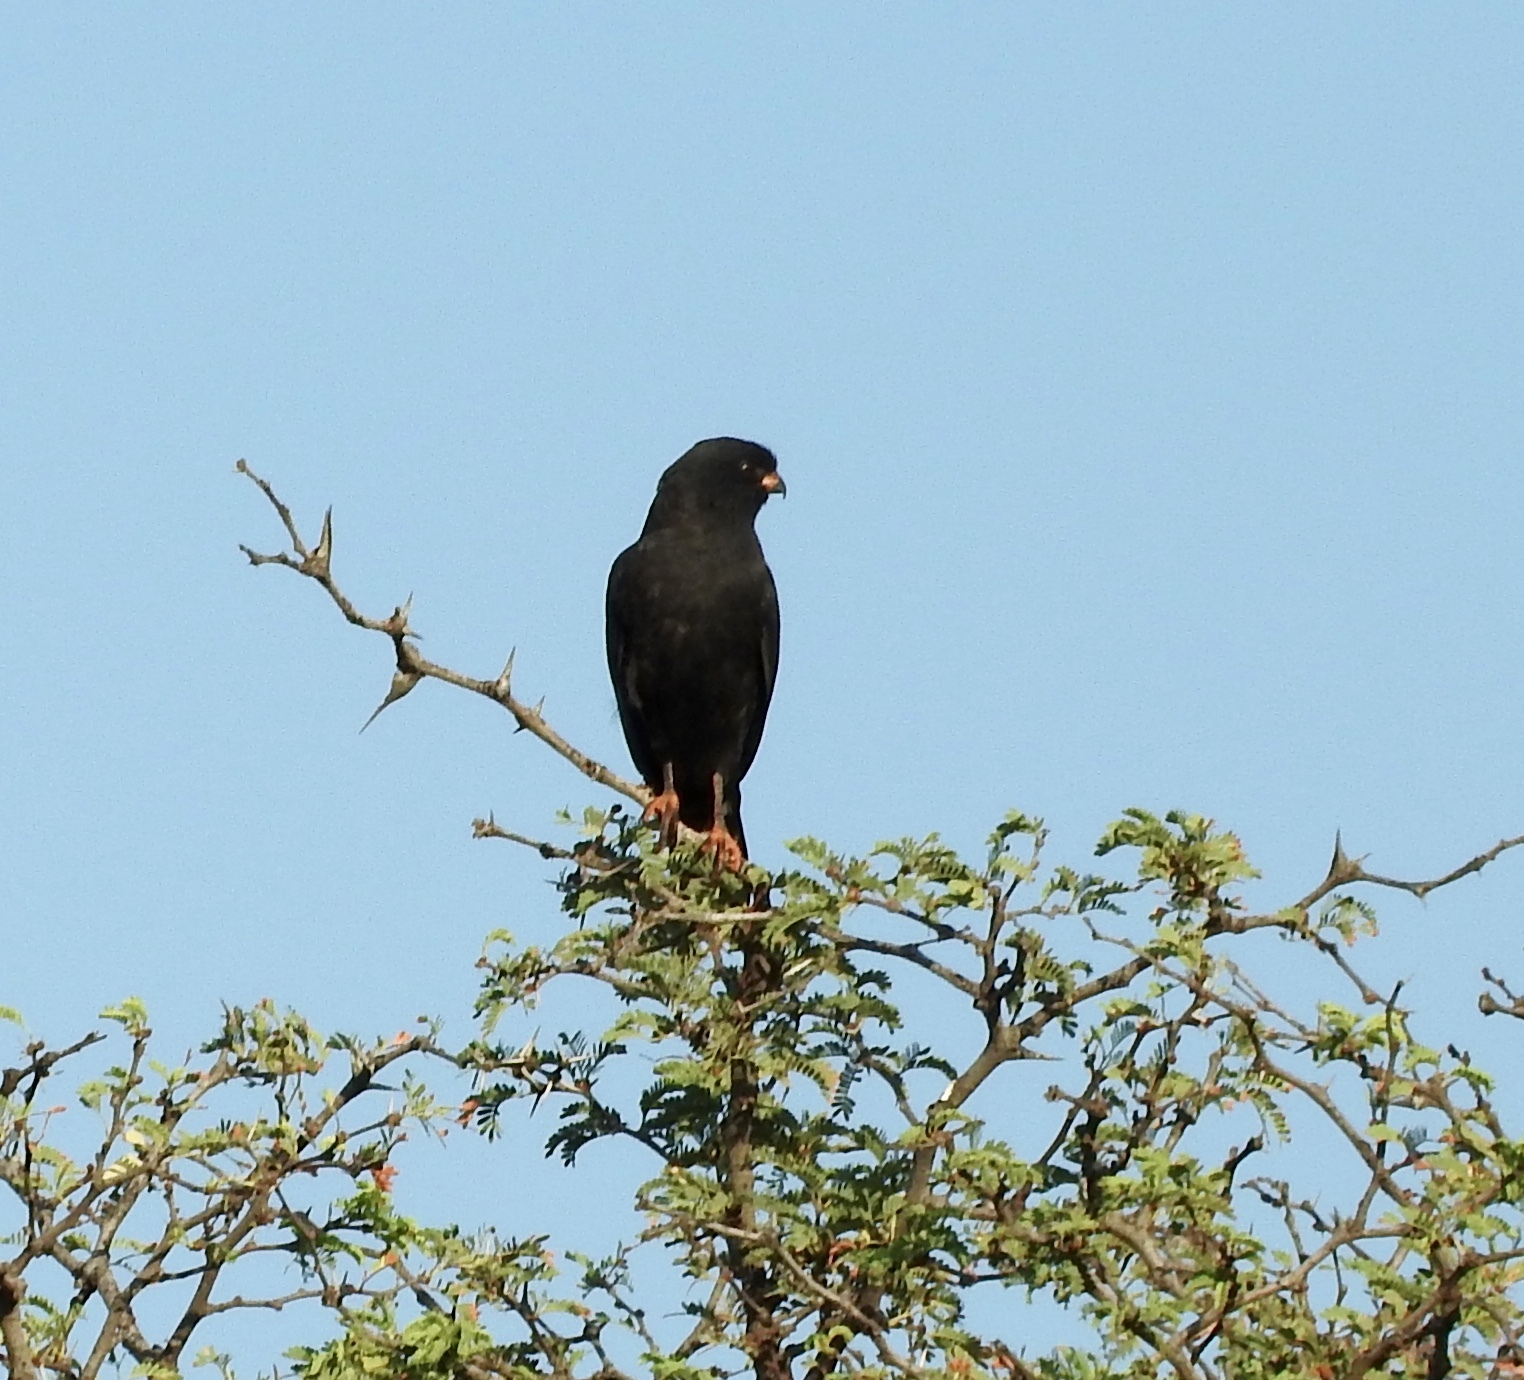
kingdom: Animalia
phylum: Chordata
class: Aves
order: Accipitriformes
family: Accipitridae
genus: Micronisus
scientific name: Micronisus gabar
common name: Gabar goshawk
